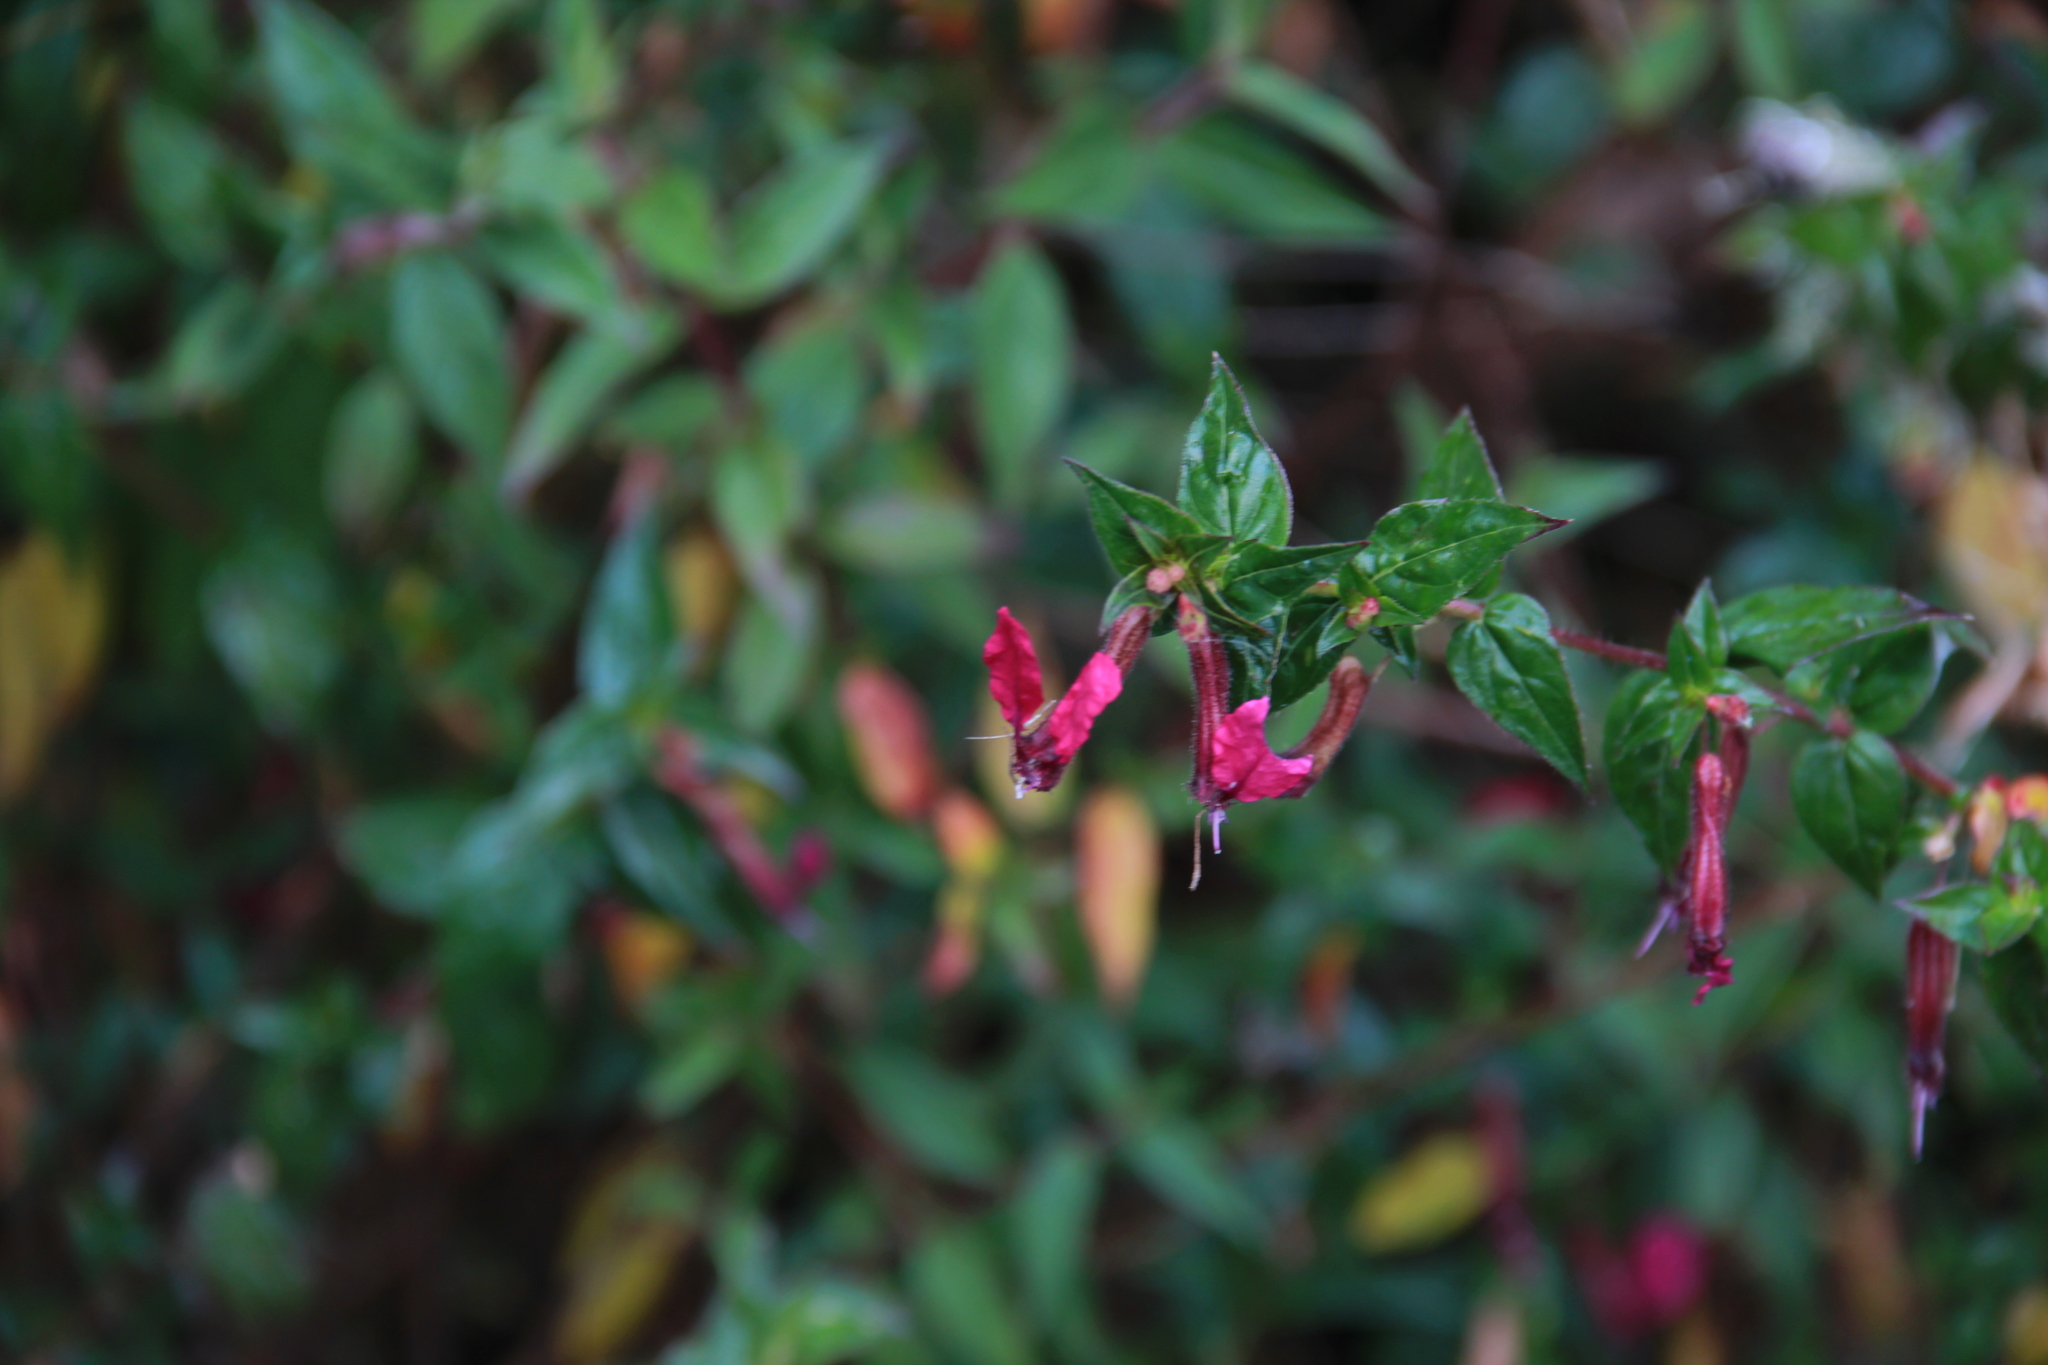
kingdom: Plantae
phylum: Tracheophyta
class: Magnoliopsida
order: Myrtales
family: Lythraceae
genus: Cuphea
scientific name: Cuphea cordata
